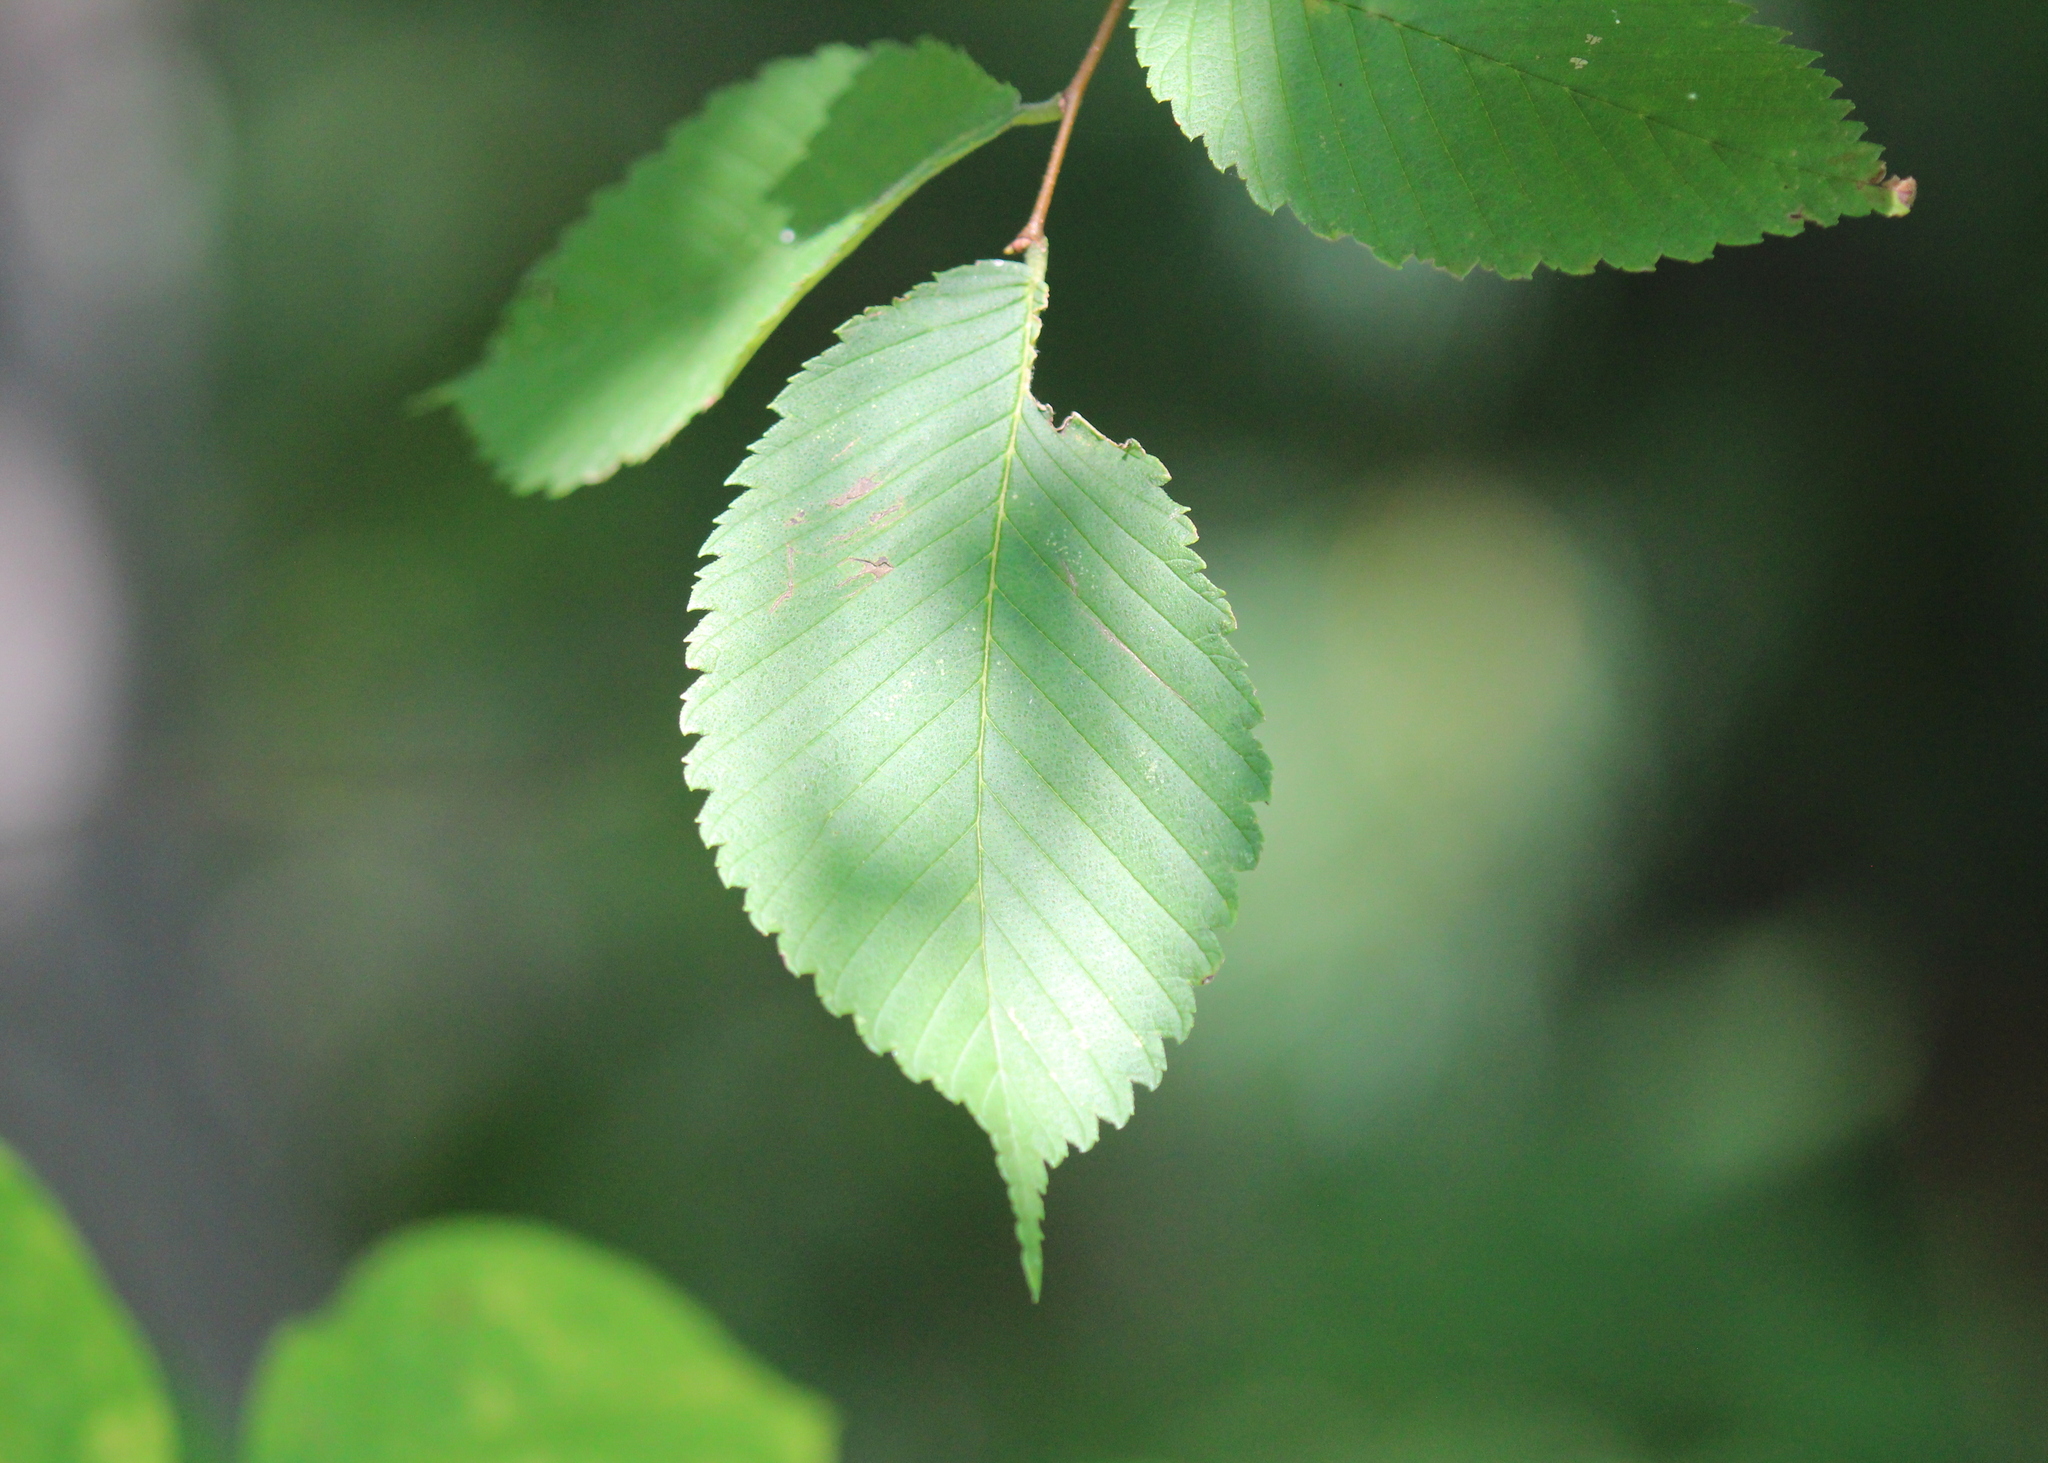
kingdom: Plantae
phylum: Tracheophyta
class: Magnoliopsida
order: Rosales
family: Ulmaceae
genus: Ulmus
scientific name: Ulmus americana
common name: American elm
